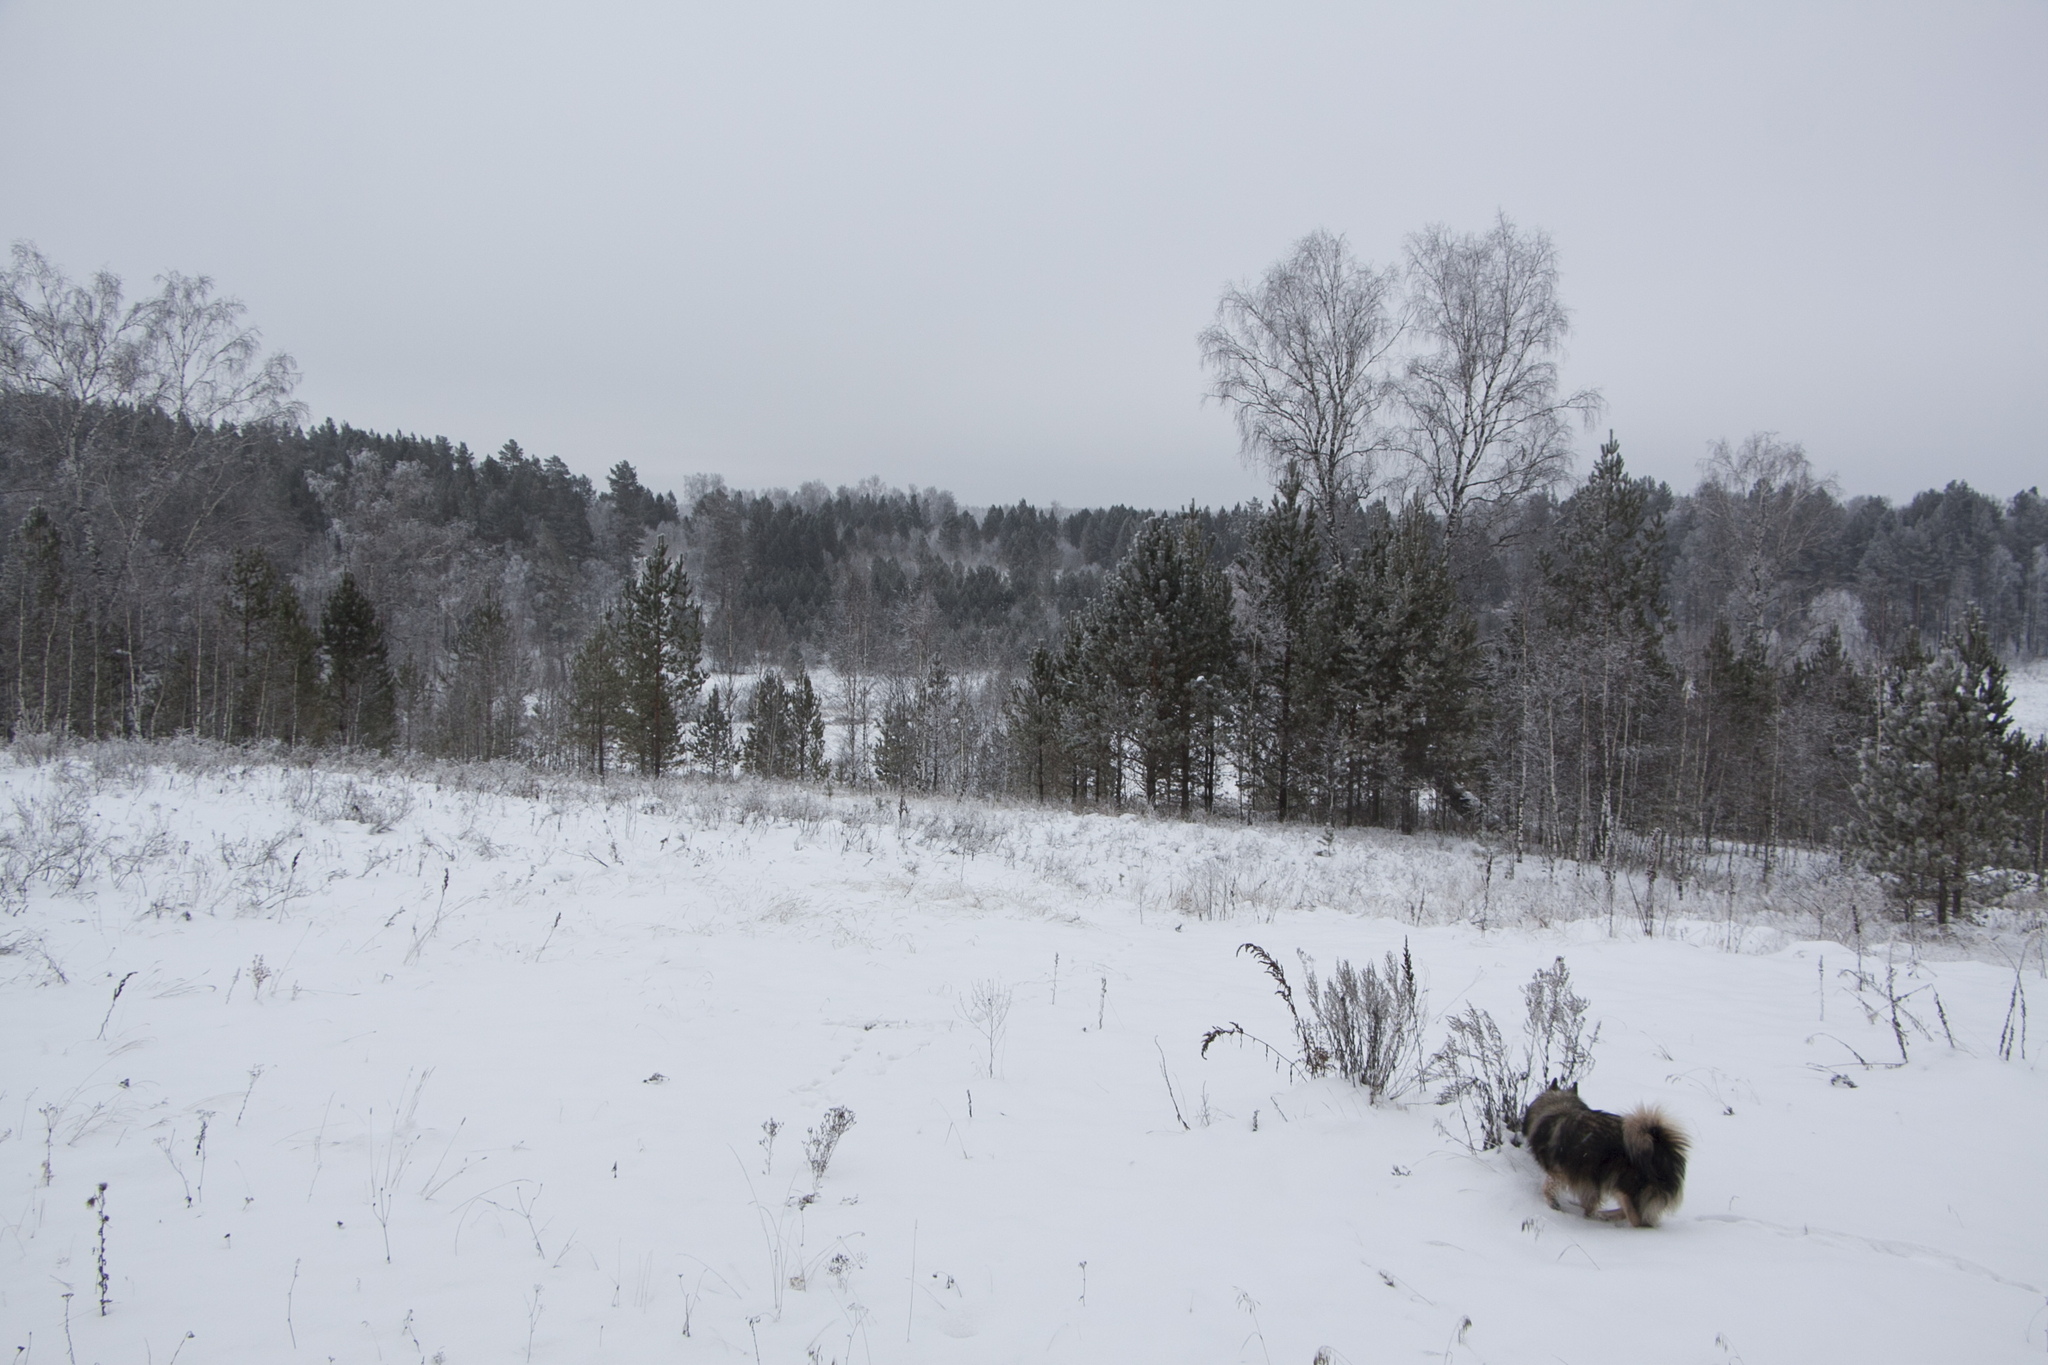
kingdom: Plantae
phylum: Tracheophyta
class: Magnoliopsida
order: Fagales
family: Betulaceae
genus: Betula
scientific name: Betula pendula
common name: Silver birch
